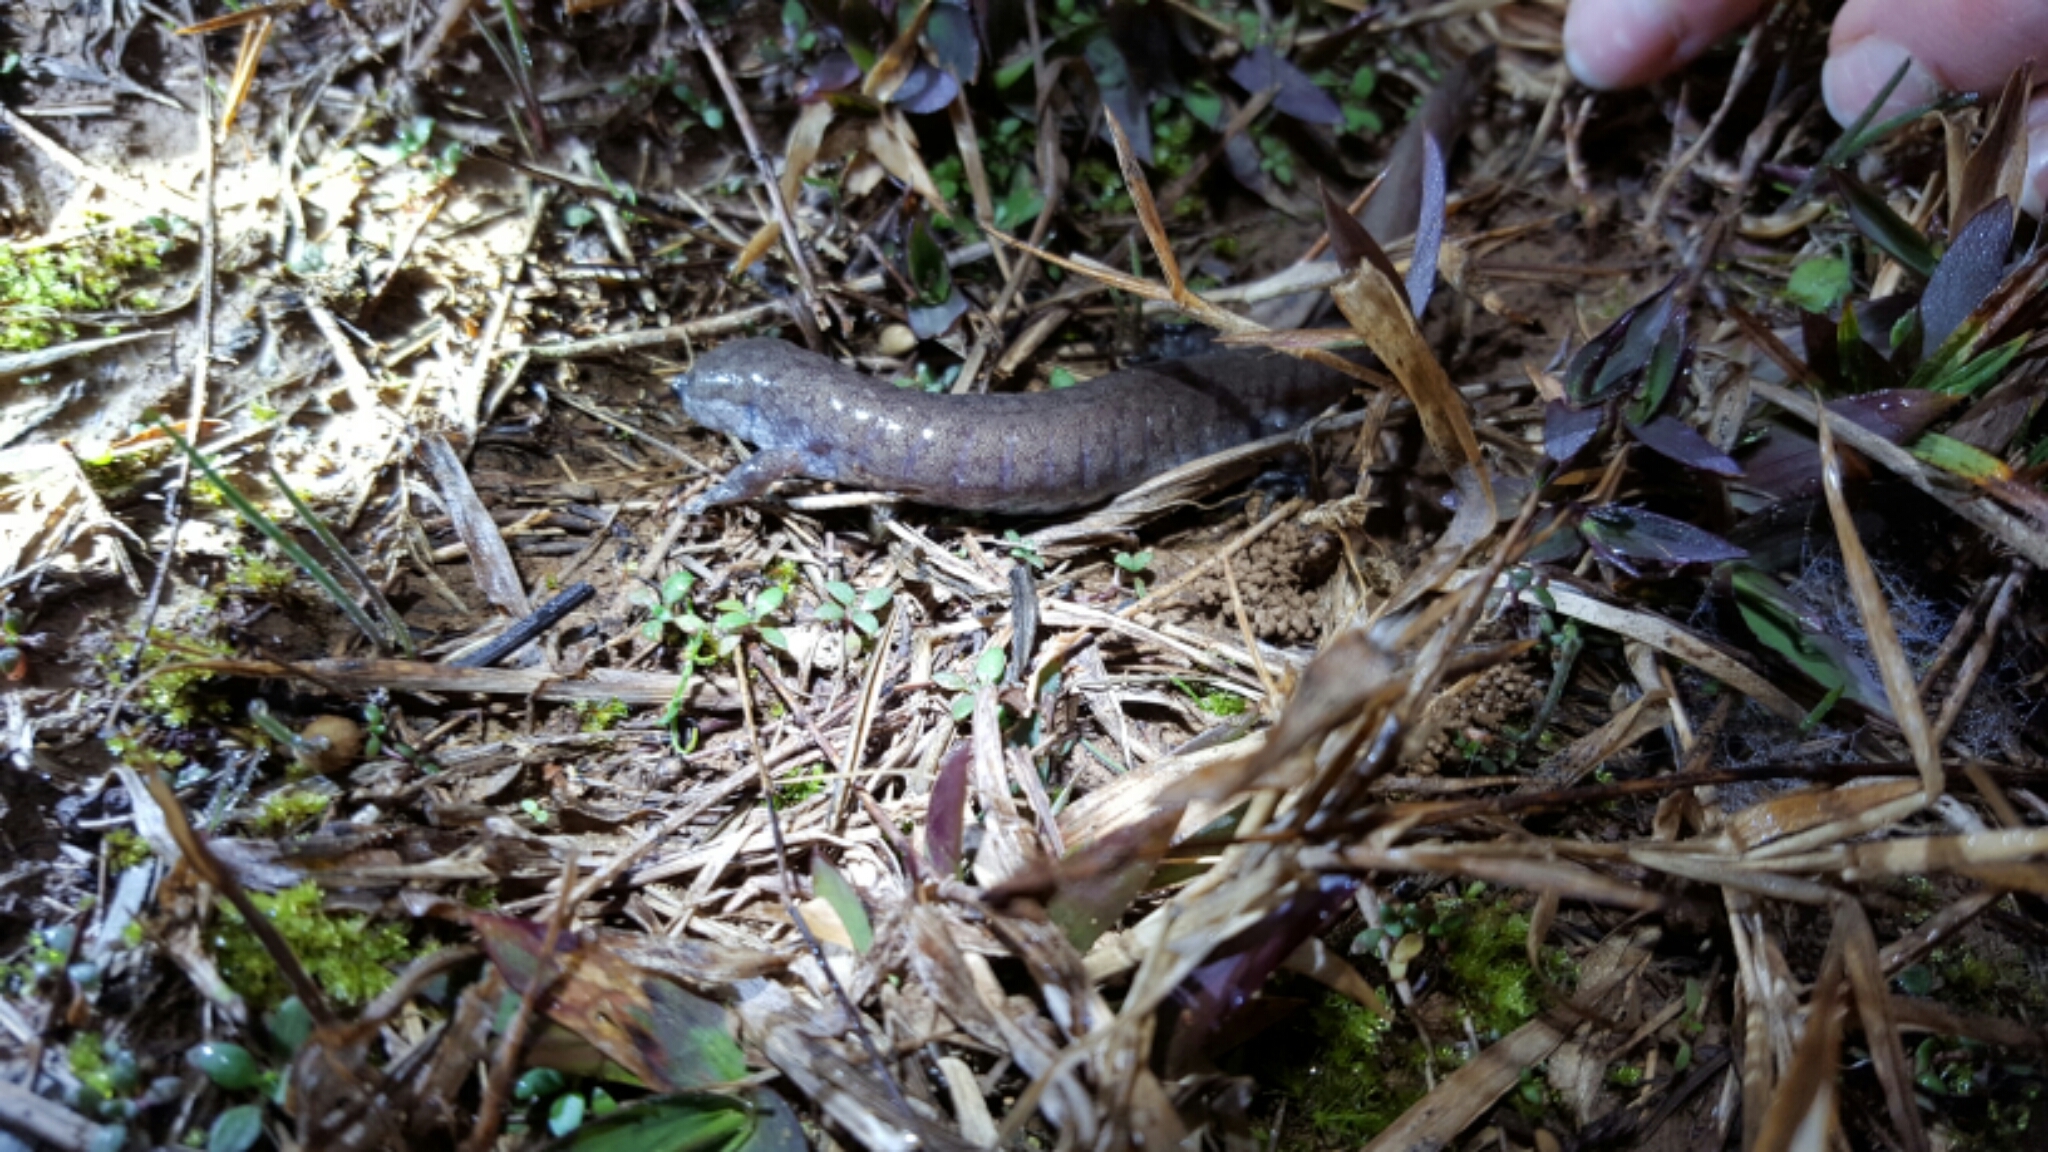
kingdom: Animalia
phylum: Chordata
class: Amphibia
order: Caudata
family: Ambystomatidae
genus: Ambystoma
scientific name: Ambystoma texanum
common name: Small-mouth salamander
